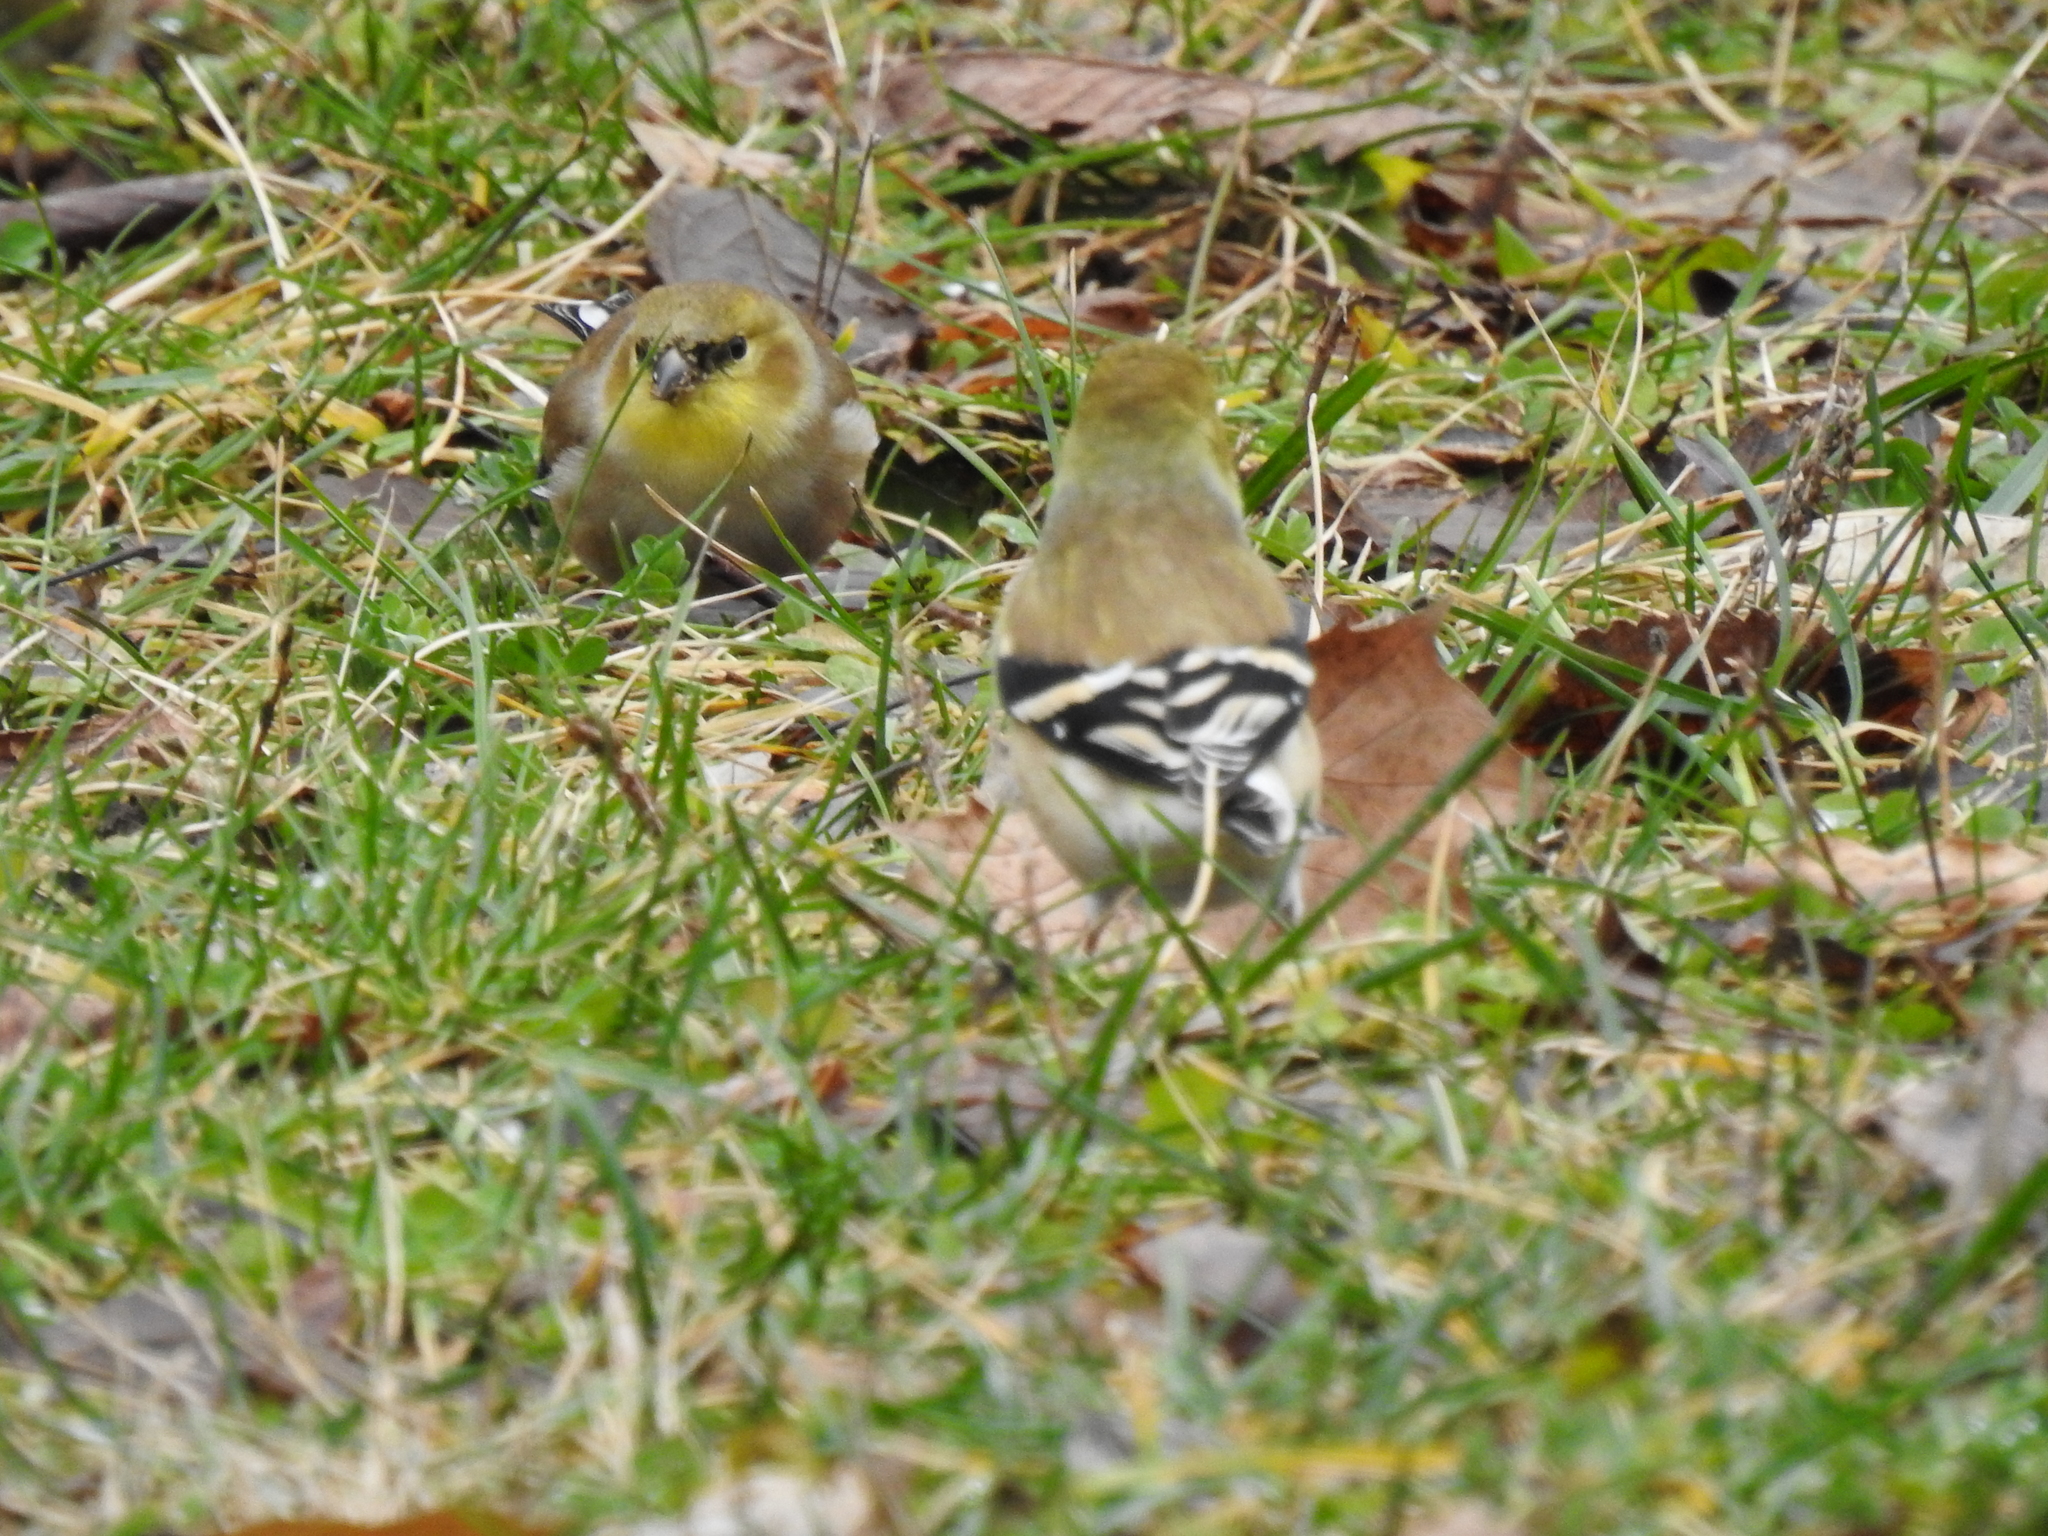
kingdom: Animalia
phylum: Chordata
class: Aves
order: Passeriformes
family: Fringillidae
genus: Spinus
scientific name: Spinus tristis
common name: American goldfinch
